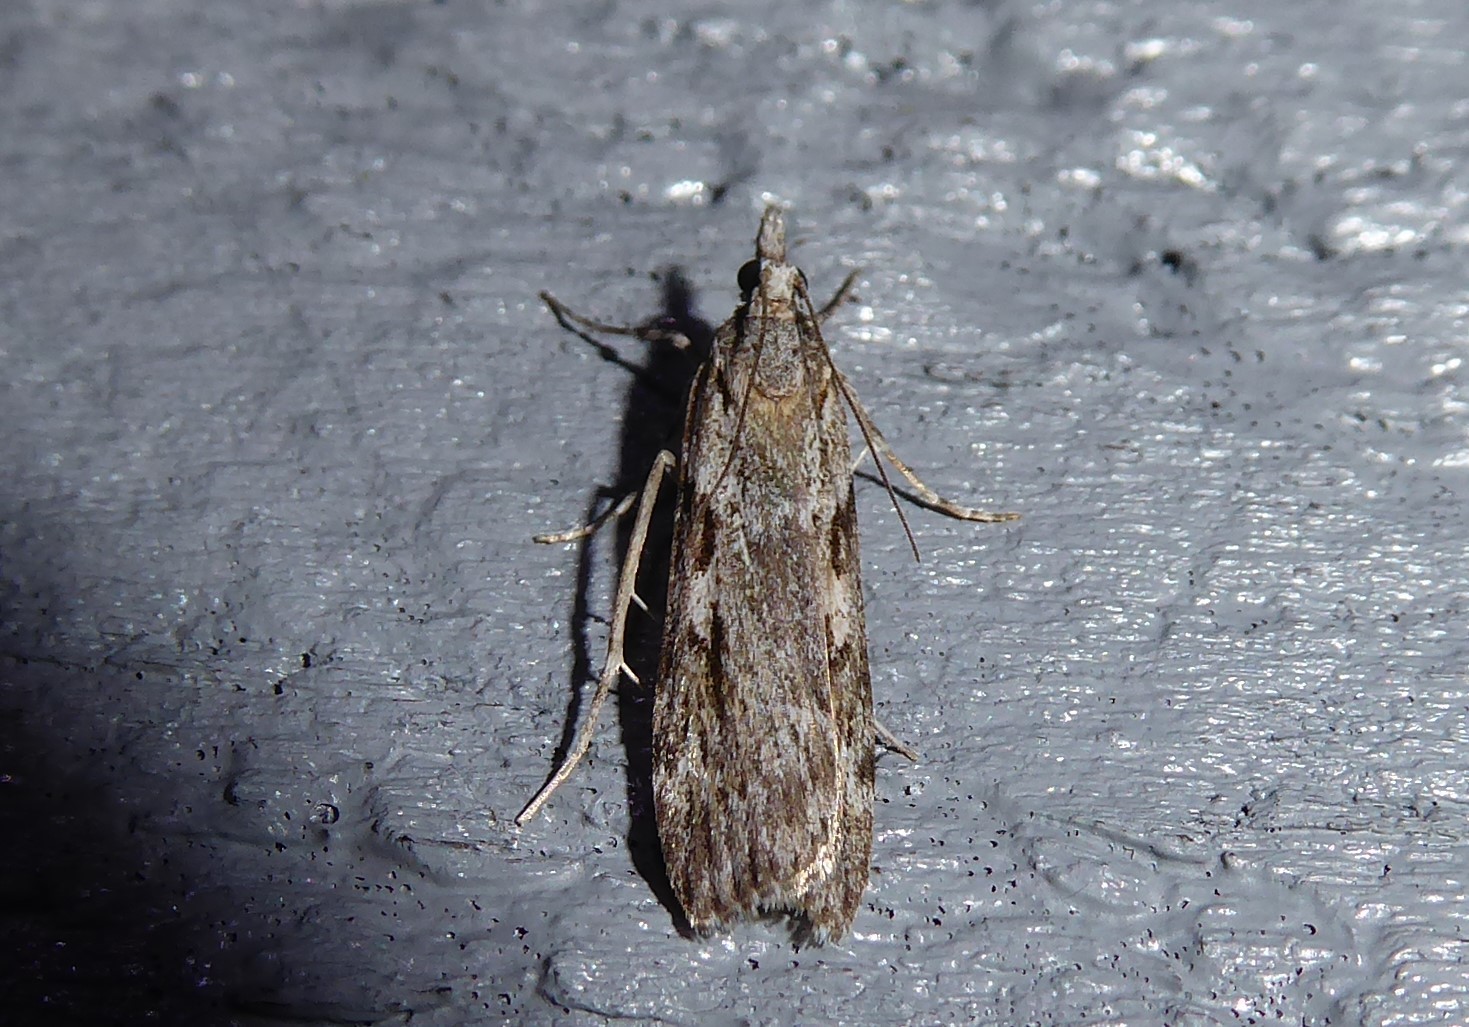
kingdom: Animalia
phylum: Arthropoda
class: Insecta
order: Lepidoptera
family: Crambidae
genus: Scoparia
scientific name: Scoparia halopis
